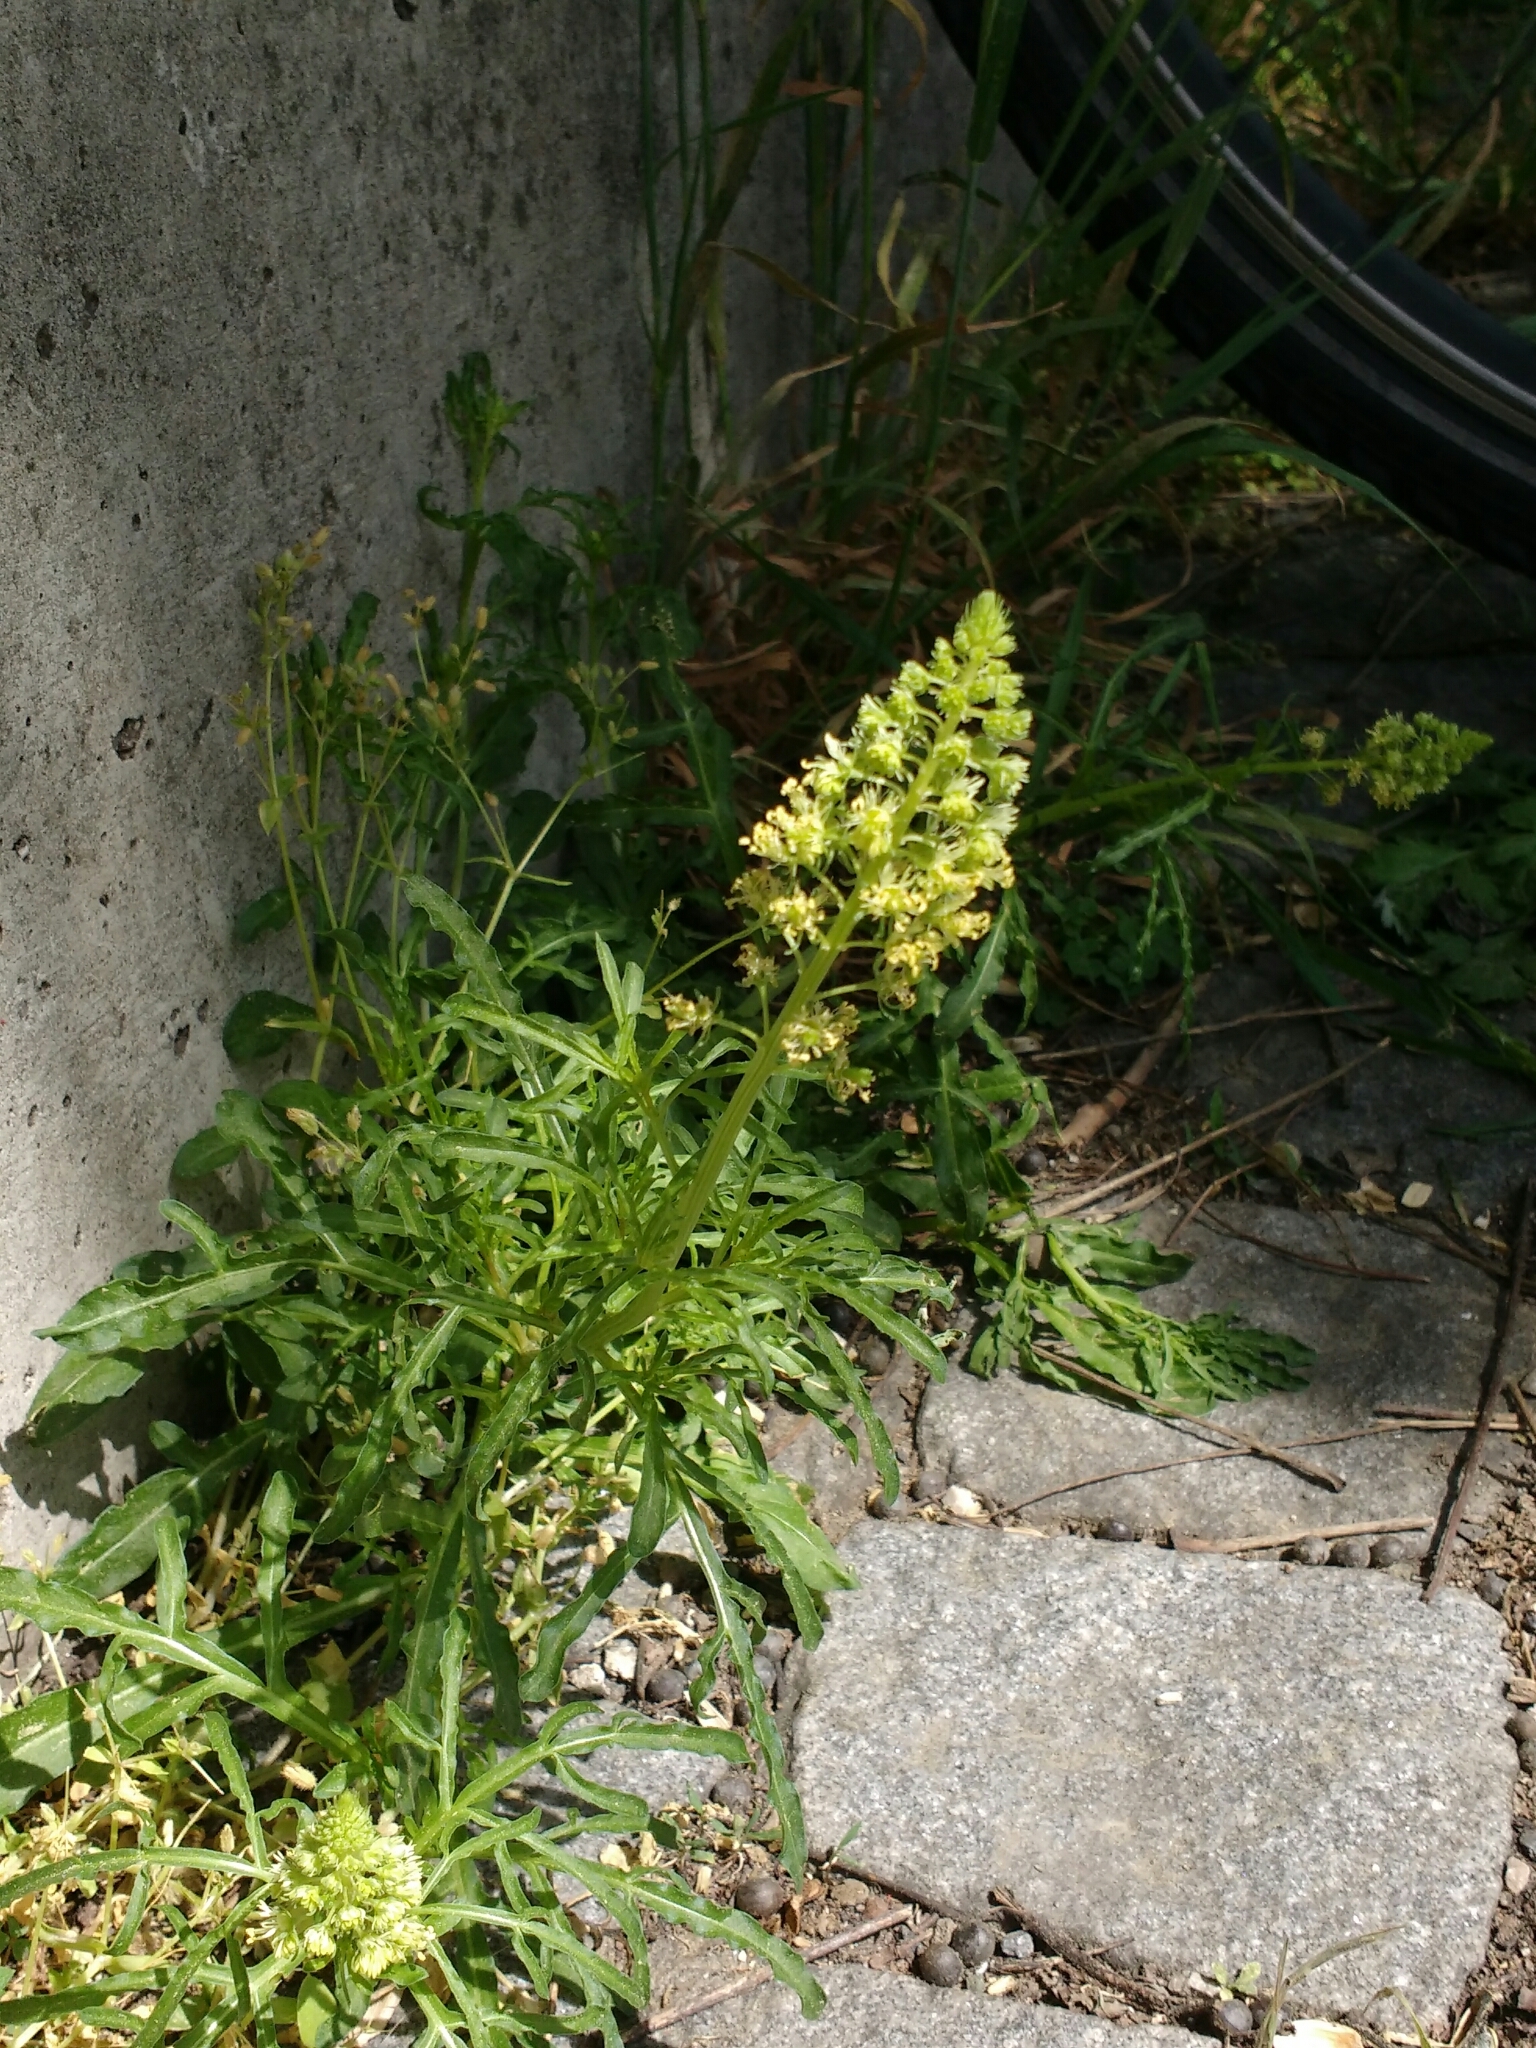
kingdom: Plantae
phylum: Tracheophyta
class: Magnoliopsida
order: Brassicales
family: Resedaceae
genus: Reseda
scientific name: Reseda lutea
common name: Wild mignonette
